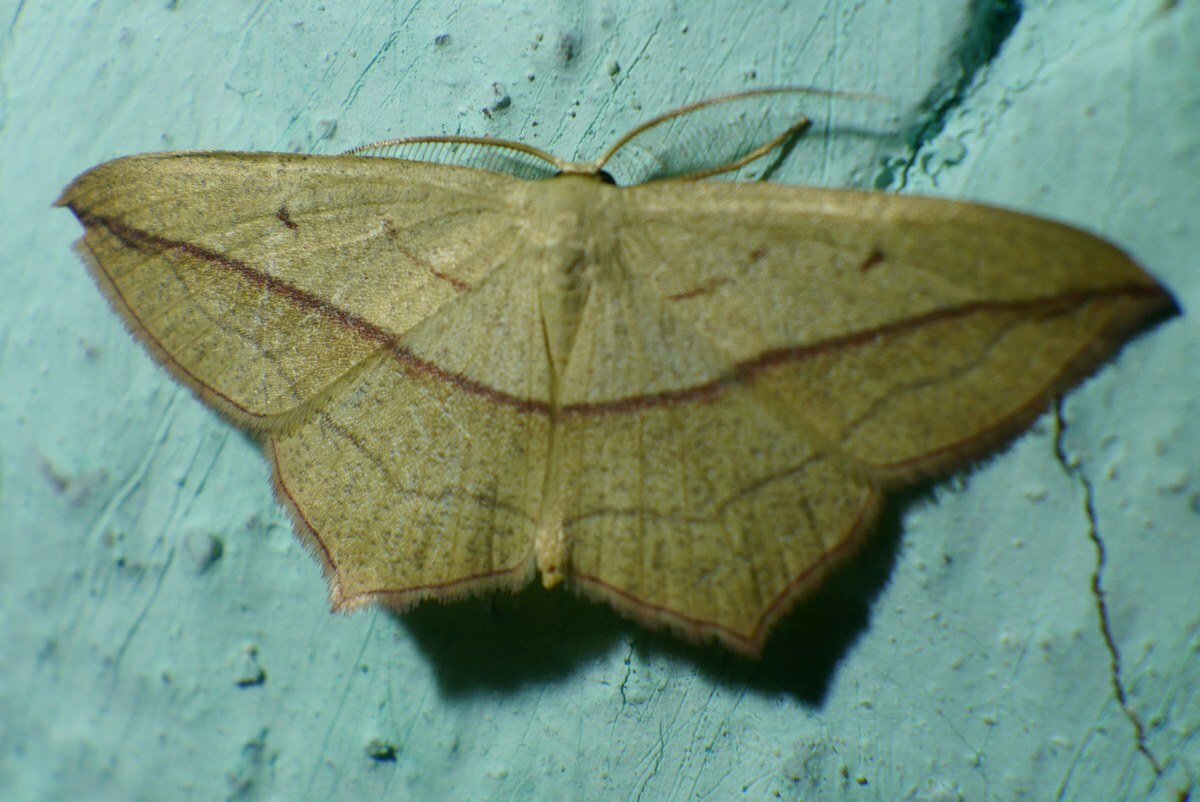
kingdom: Animalia
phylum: Arthropoda
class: Insecta
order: Lepidoptera
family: Geometridae
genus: Timandra
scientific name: Timandra comae
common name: Blood-vein
